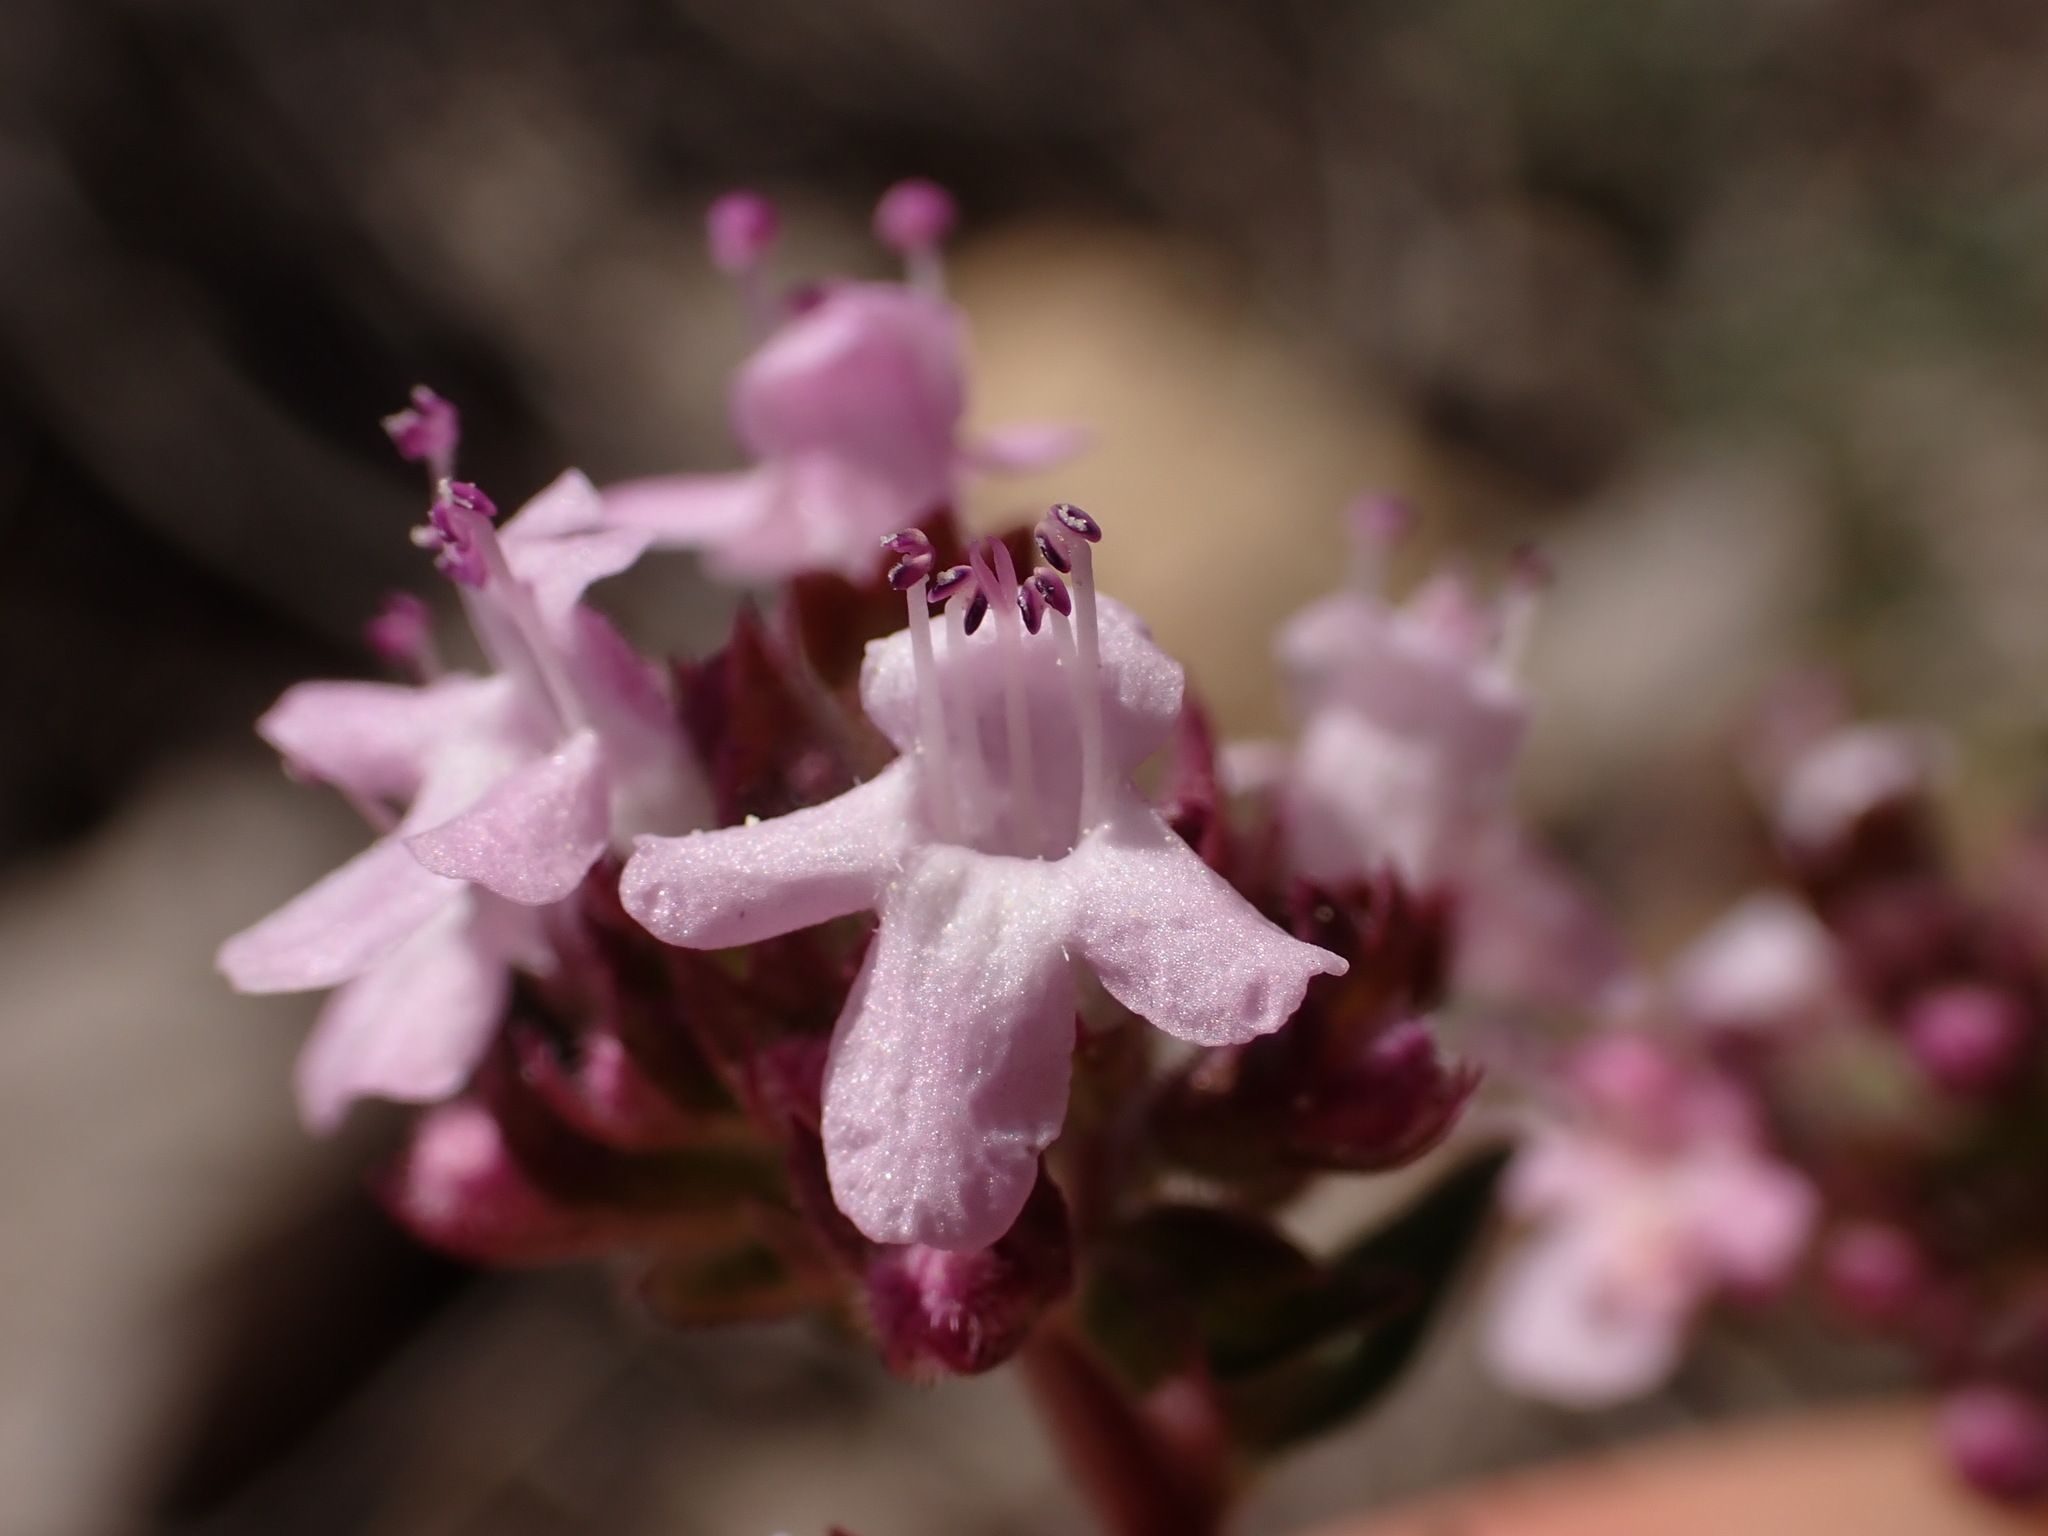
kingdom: Plantae
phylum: Tracheophyta
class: Magnoliopsida
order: Lamiales
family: Lamiaceae
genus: Thymus
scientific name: Thymus vulgaris
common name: Garden thyme
